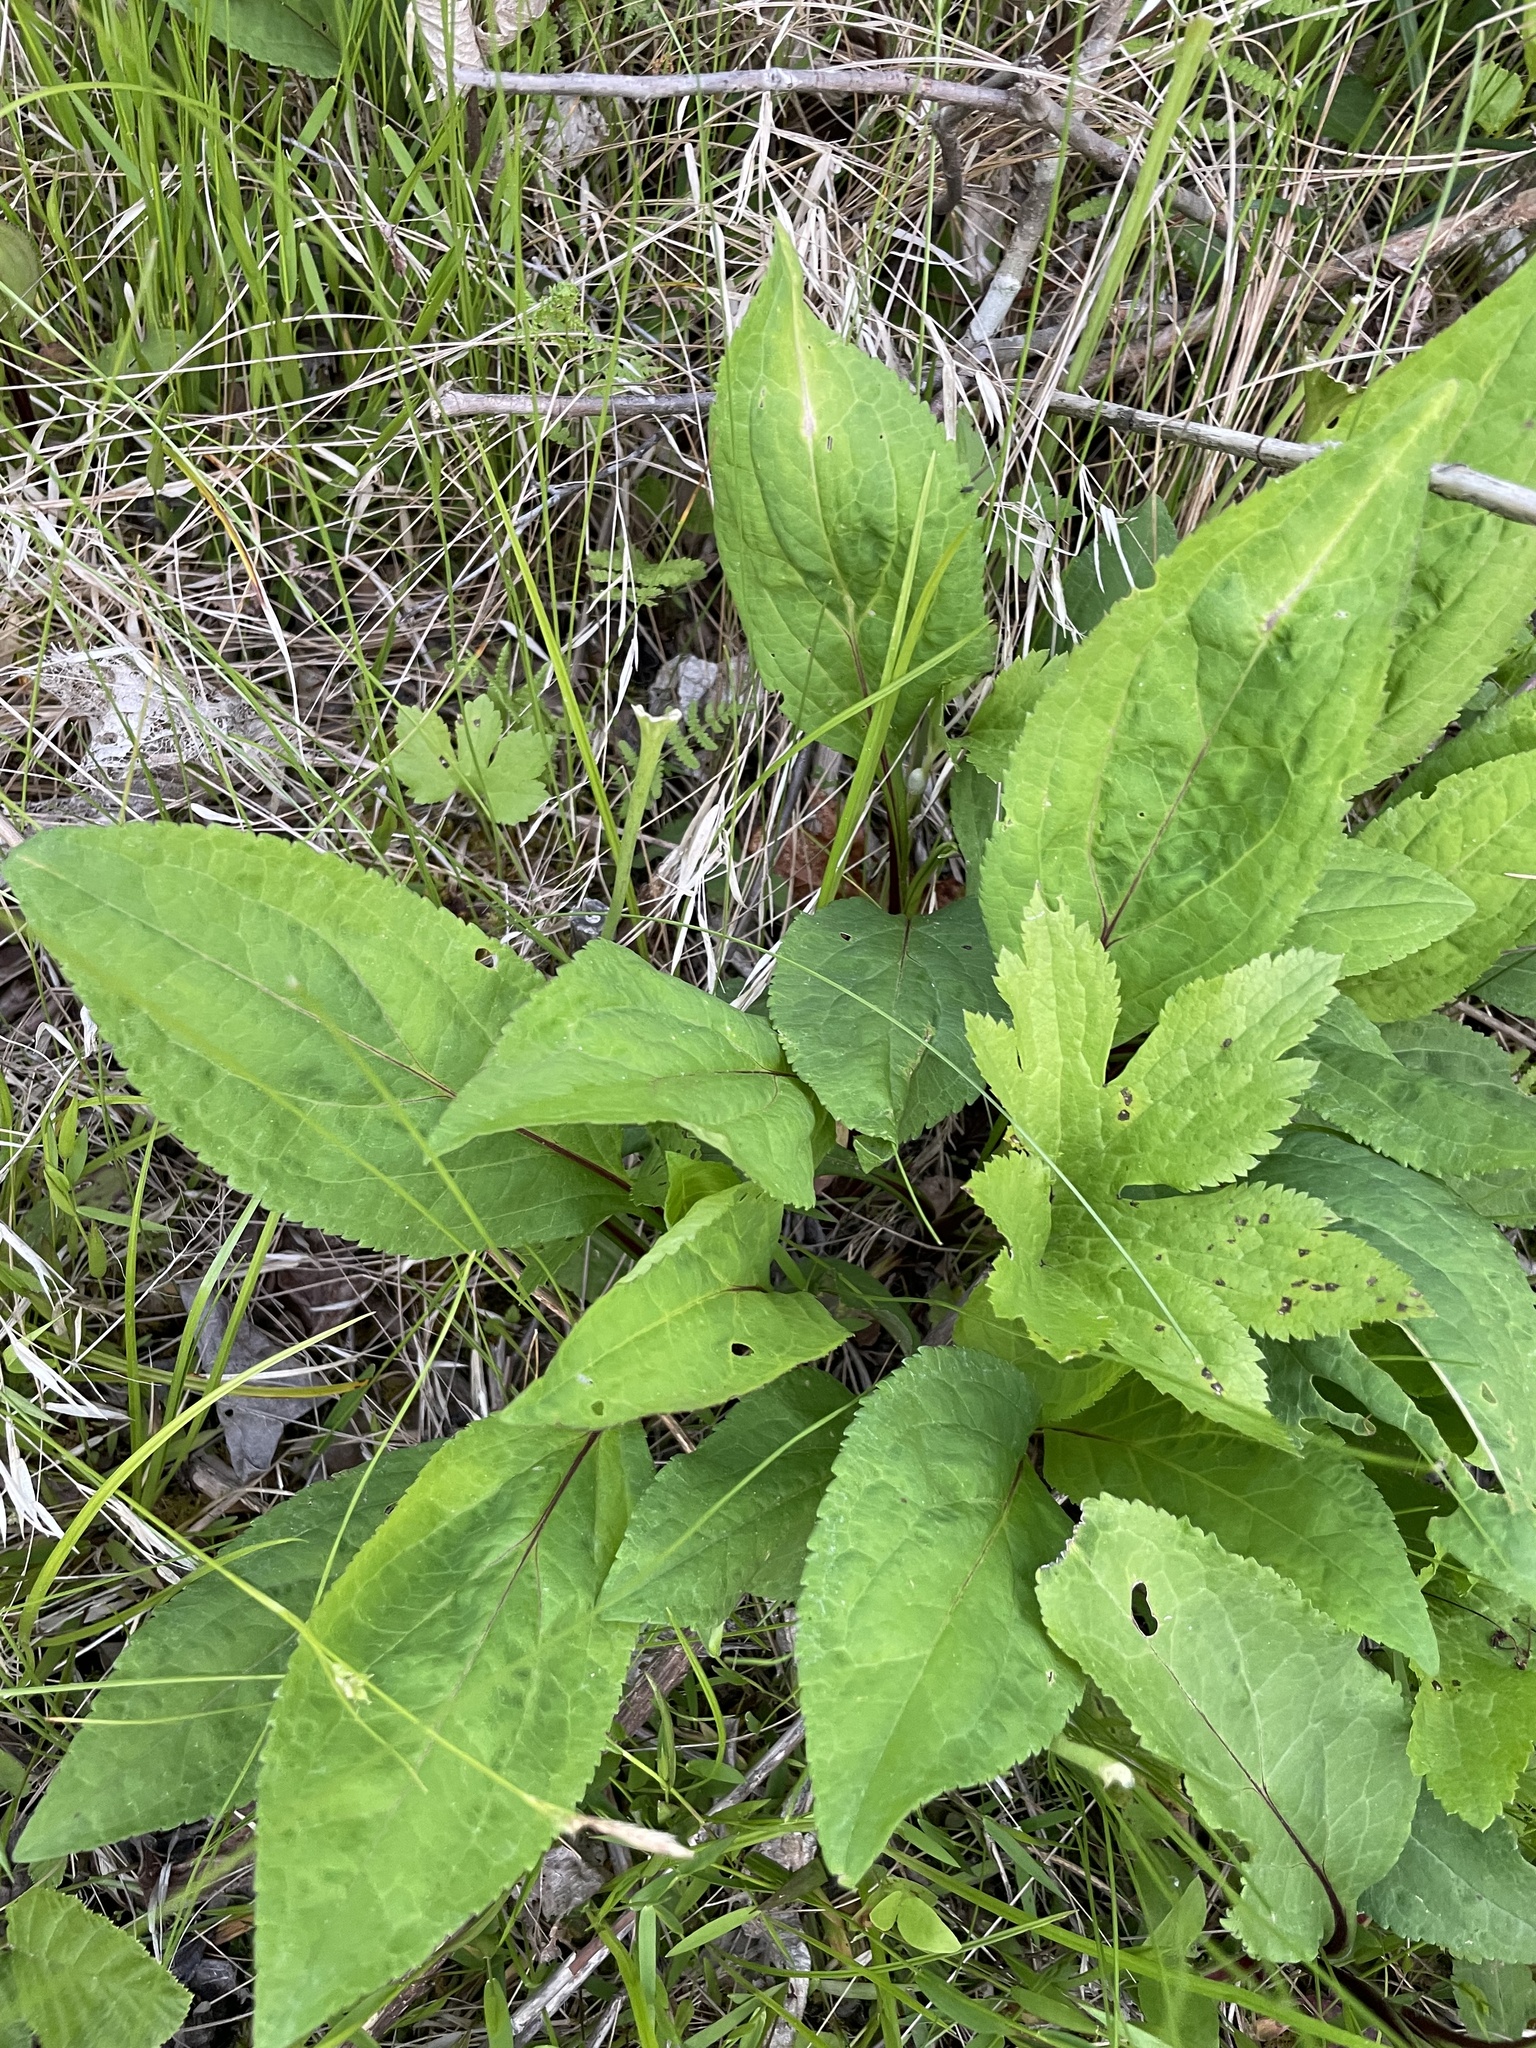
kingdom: Plantae
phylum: Tracheophyta
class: Magnoliopsida
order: Asterales
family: Asteraceae
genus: Solidago
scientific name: Solidago patula
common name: Rough-leaf goldenrod
